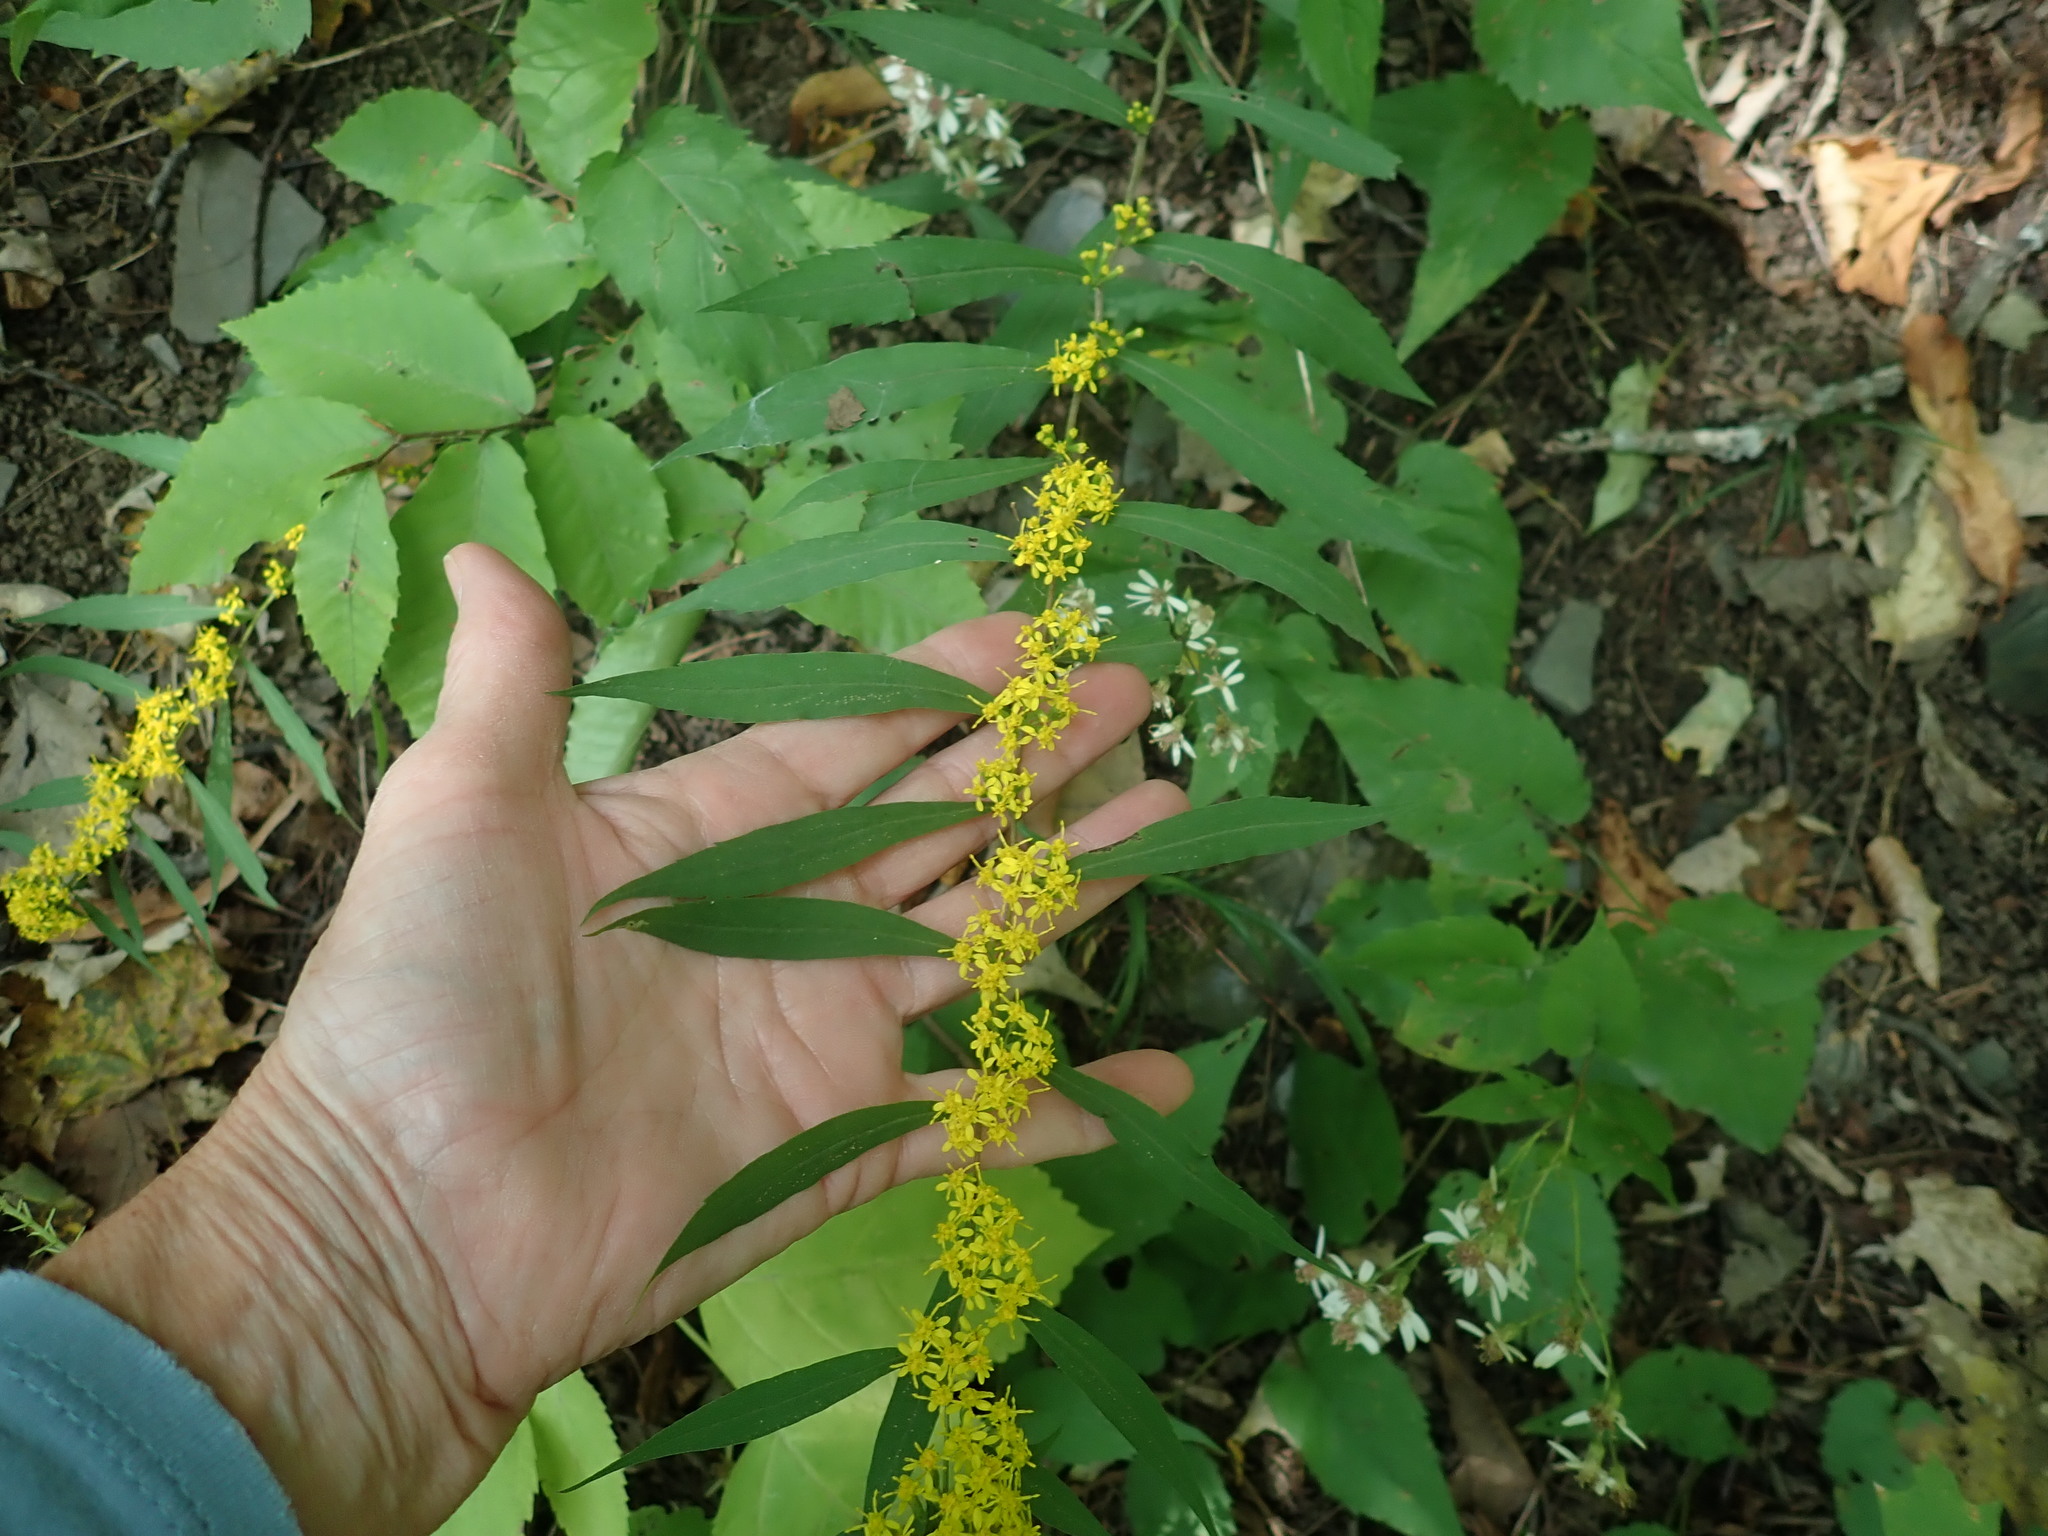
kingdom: Plantae
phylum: Tracheophyta
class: Magnoliopsida
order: Asterales
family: Asteraceae
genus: Solidago
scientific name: Solidago caesia
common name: Woodland goldenrod
